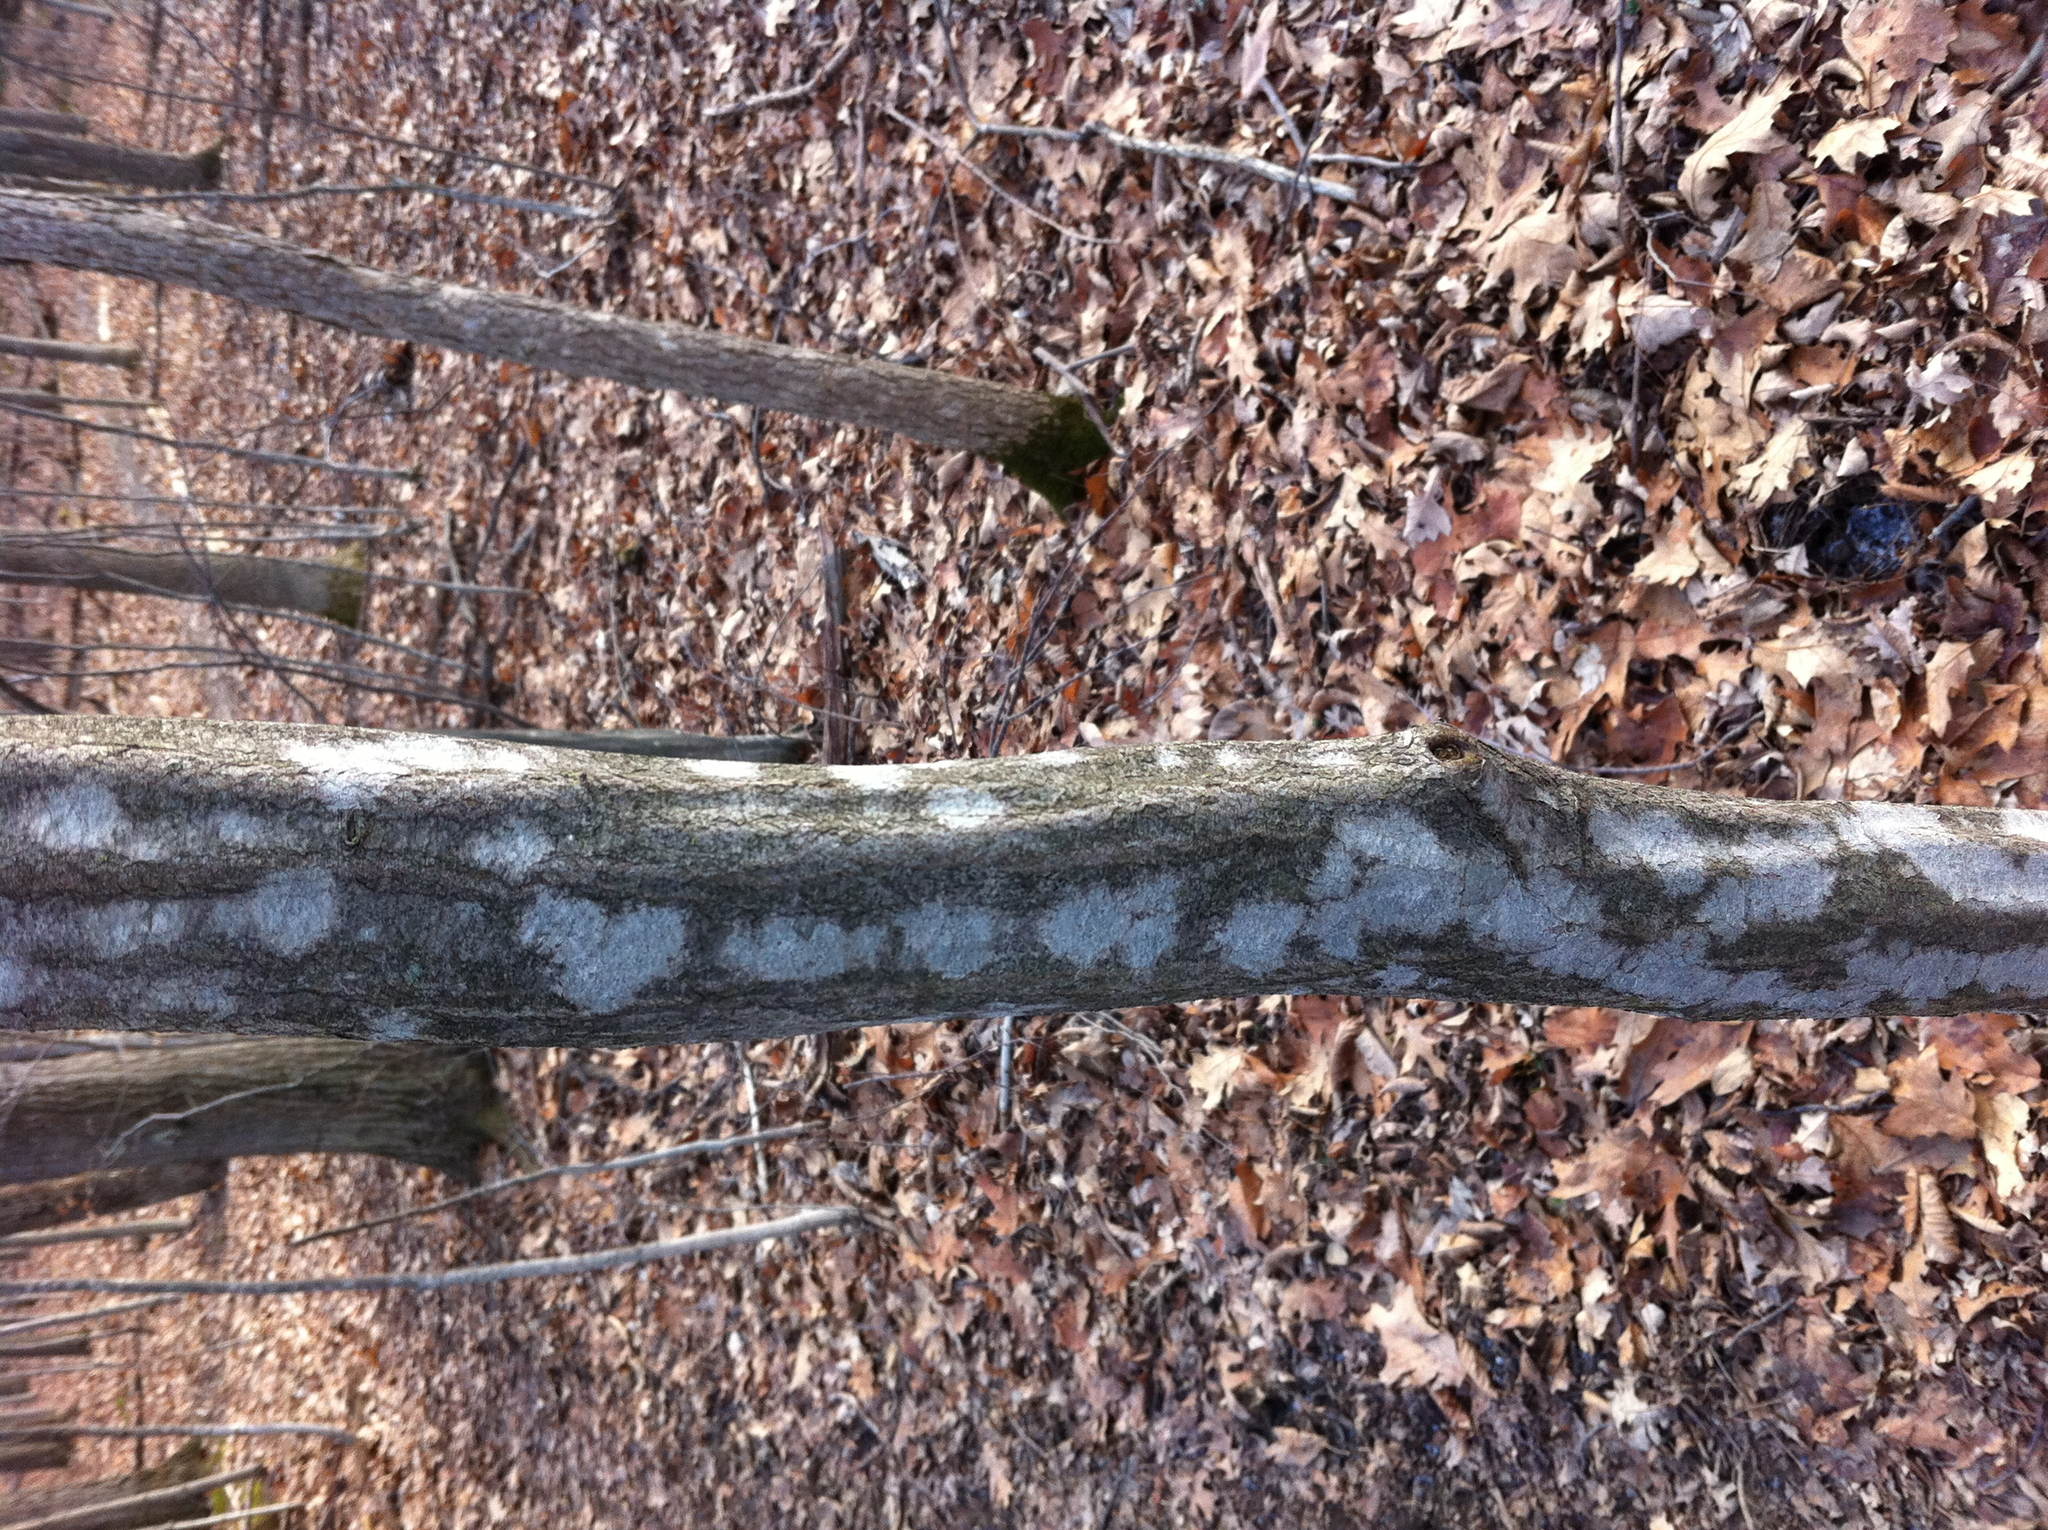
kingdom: Plantae
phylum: Tracheophyta
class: Magnoliopsida
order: Fagales
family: Betulaceae
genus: Carpinus
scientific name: Carpinus caroliniana
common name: American hornbeam
